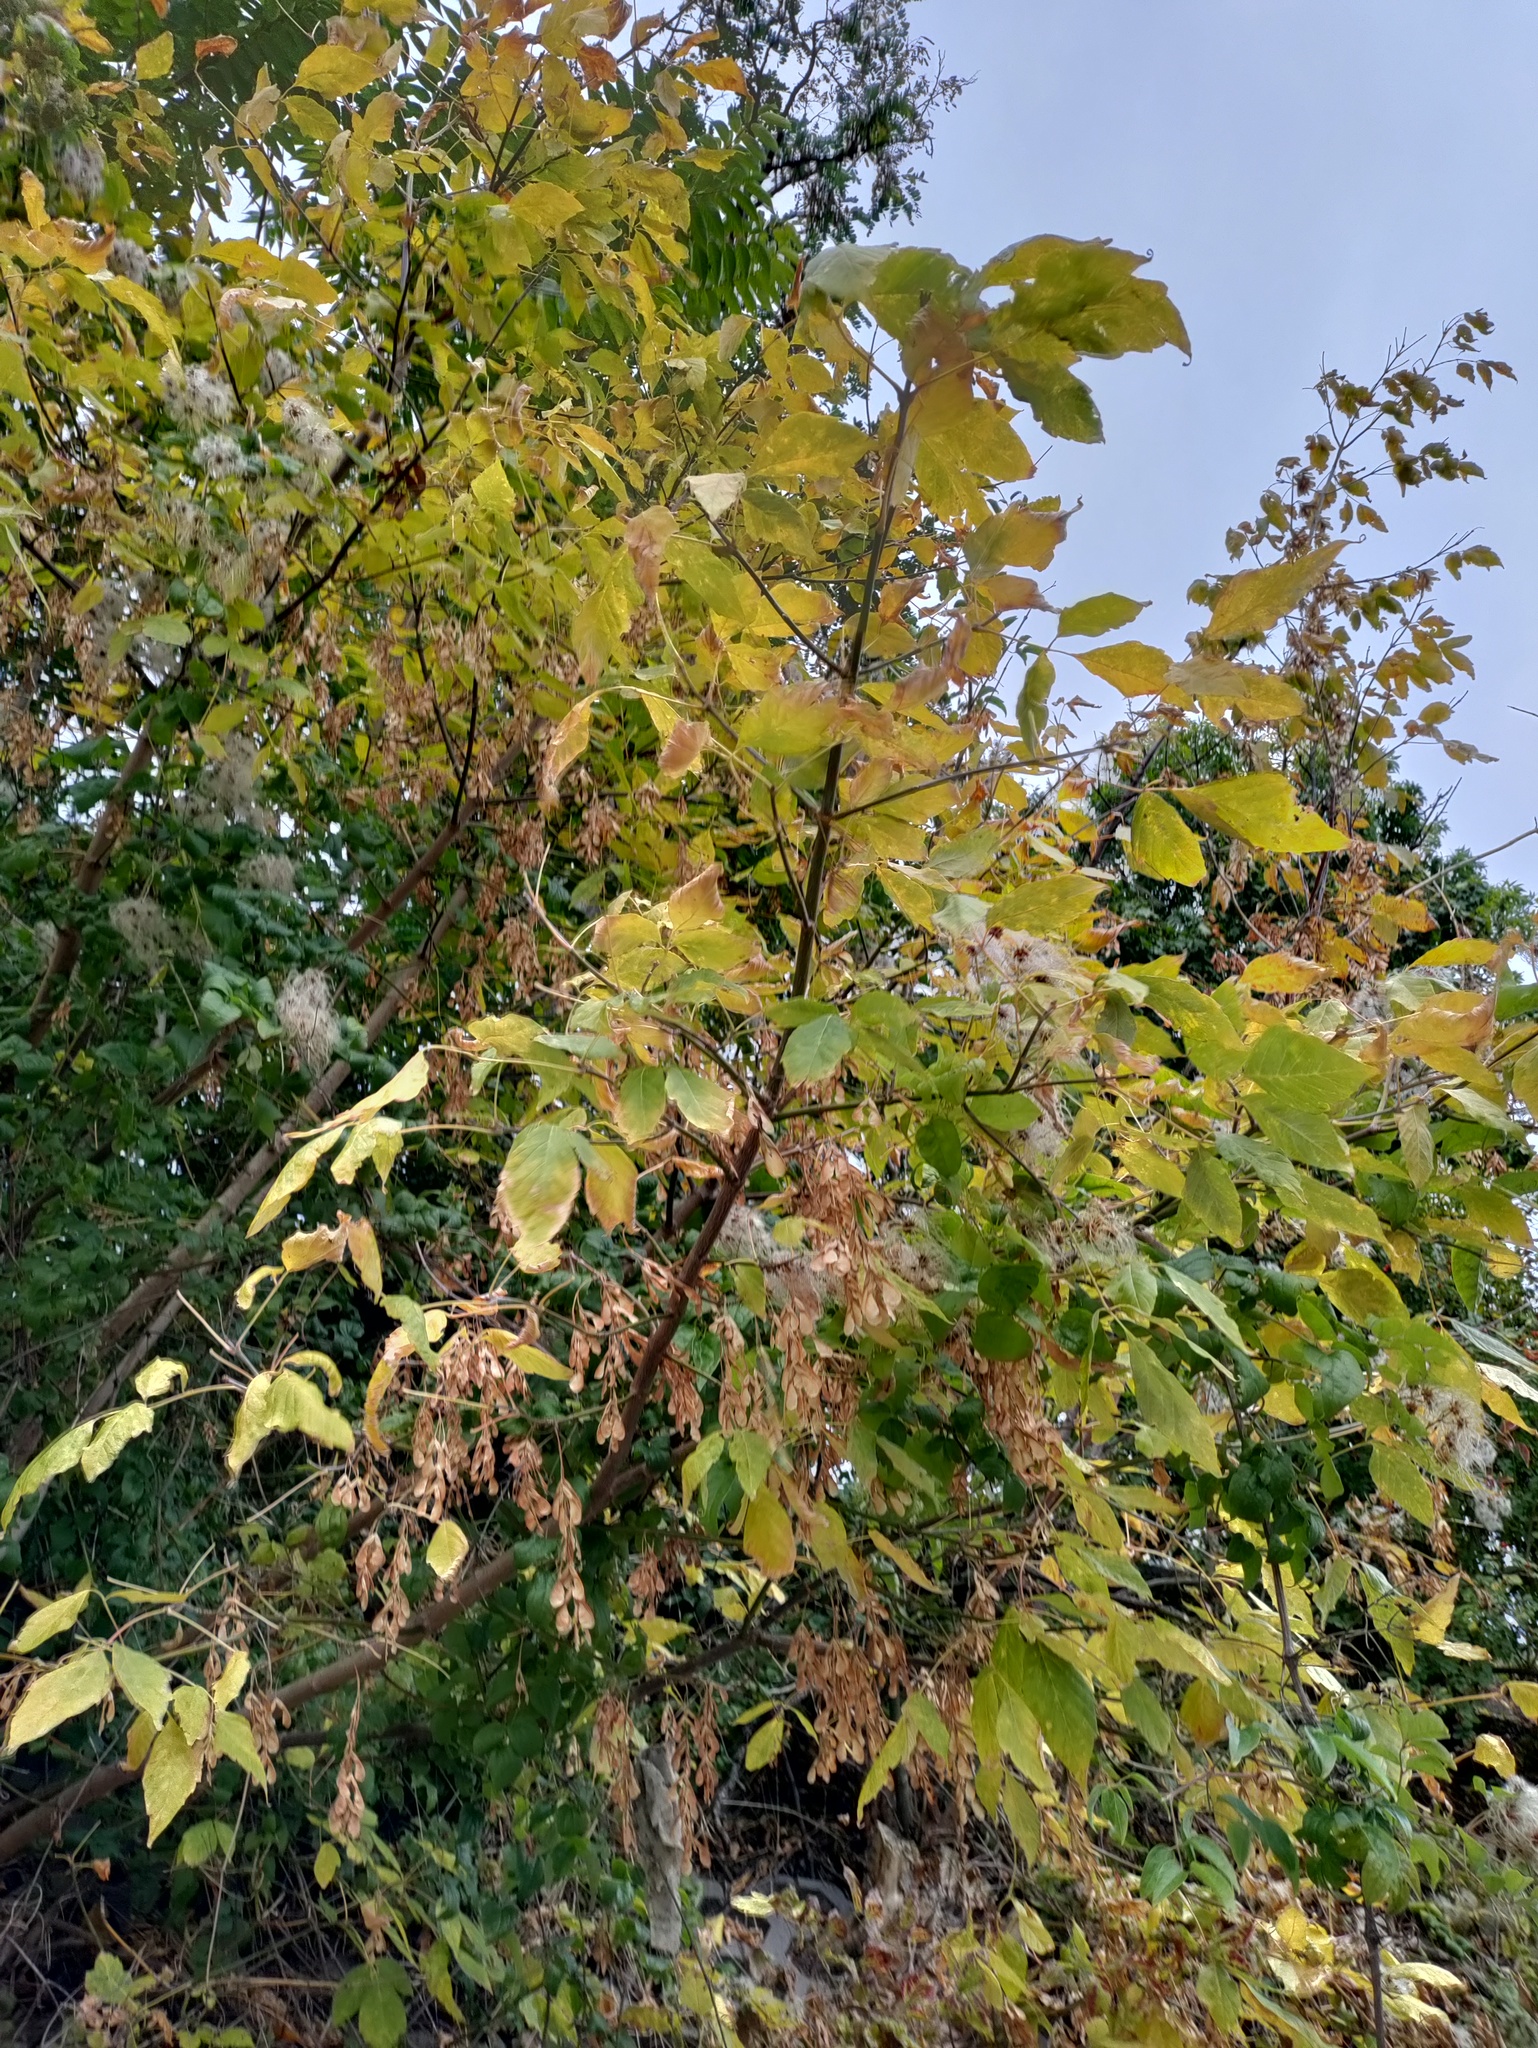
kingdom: Plantae
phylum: Tracheophyta
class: Magnoliopsida
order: Sapindales
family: Sapindaceae
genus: Acer
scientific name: Acer negundo
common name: Ashleaf maple
